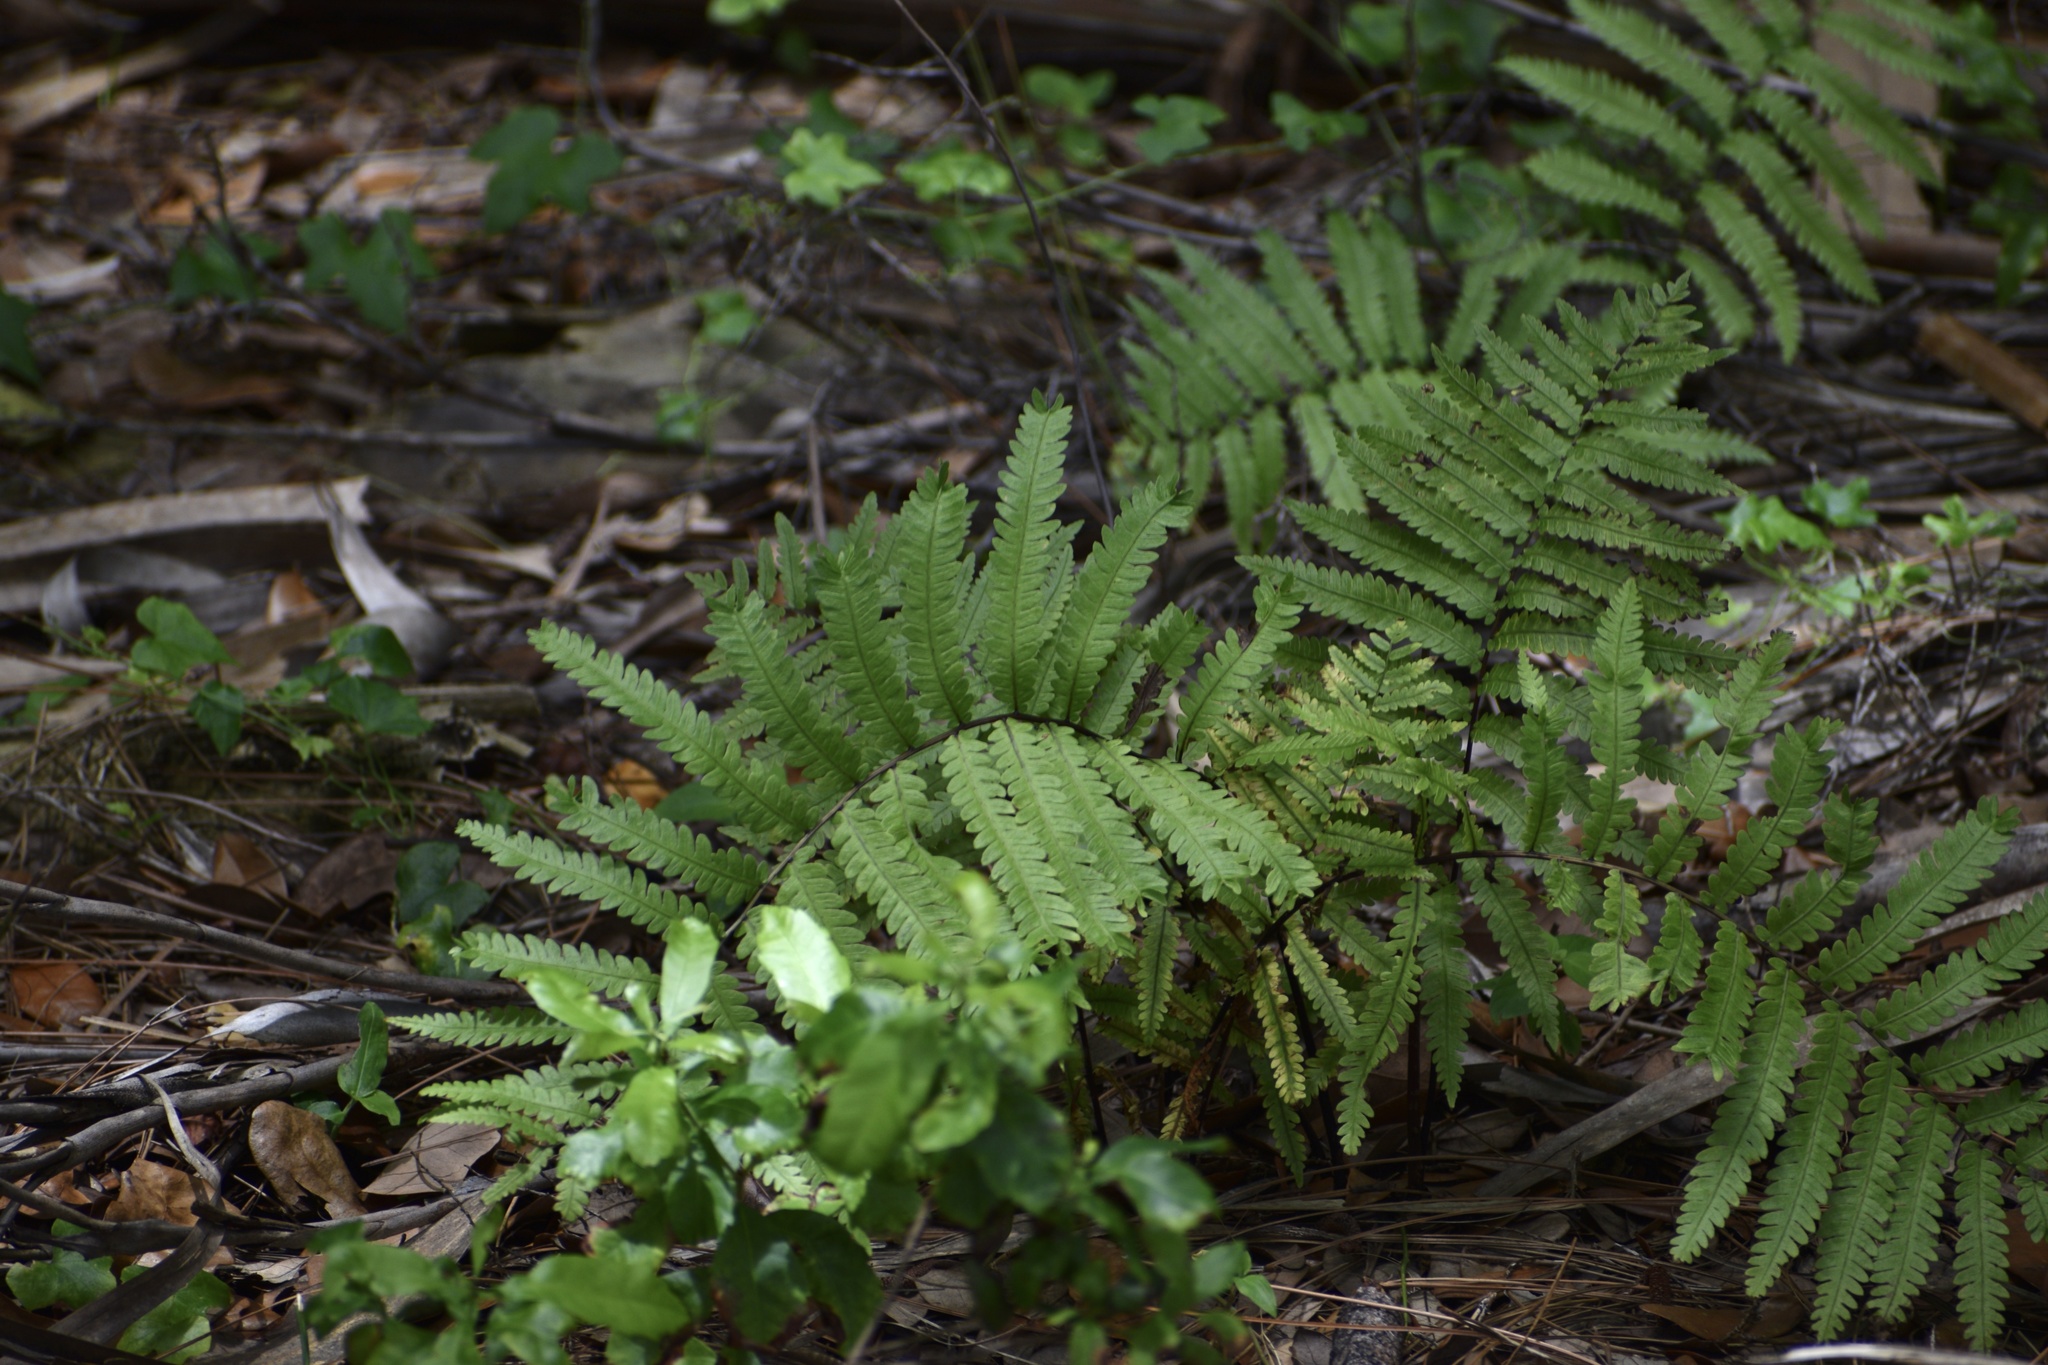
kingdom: Plantae
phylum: Tracheophyta
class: Polypodiopsida
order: Polypodiales
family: Blechnaceae
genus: Anchistea
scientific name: Anchistea virginica
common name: Virginia chain fern
